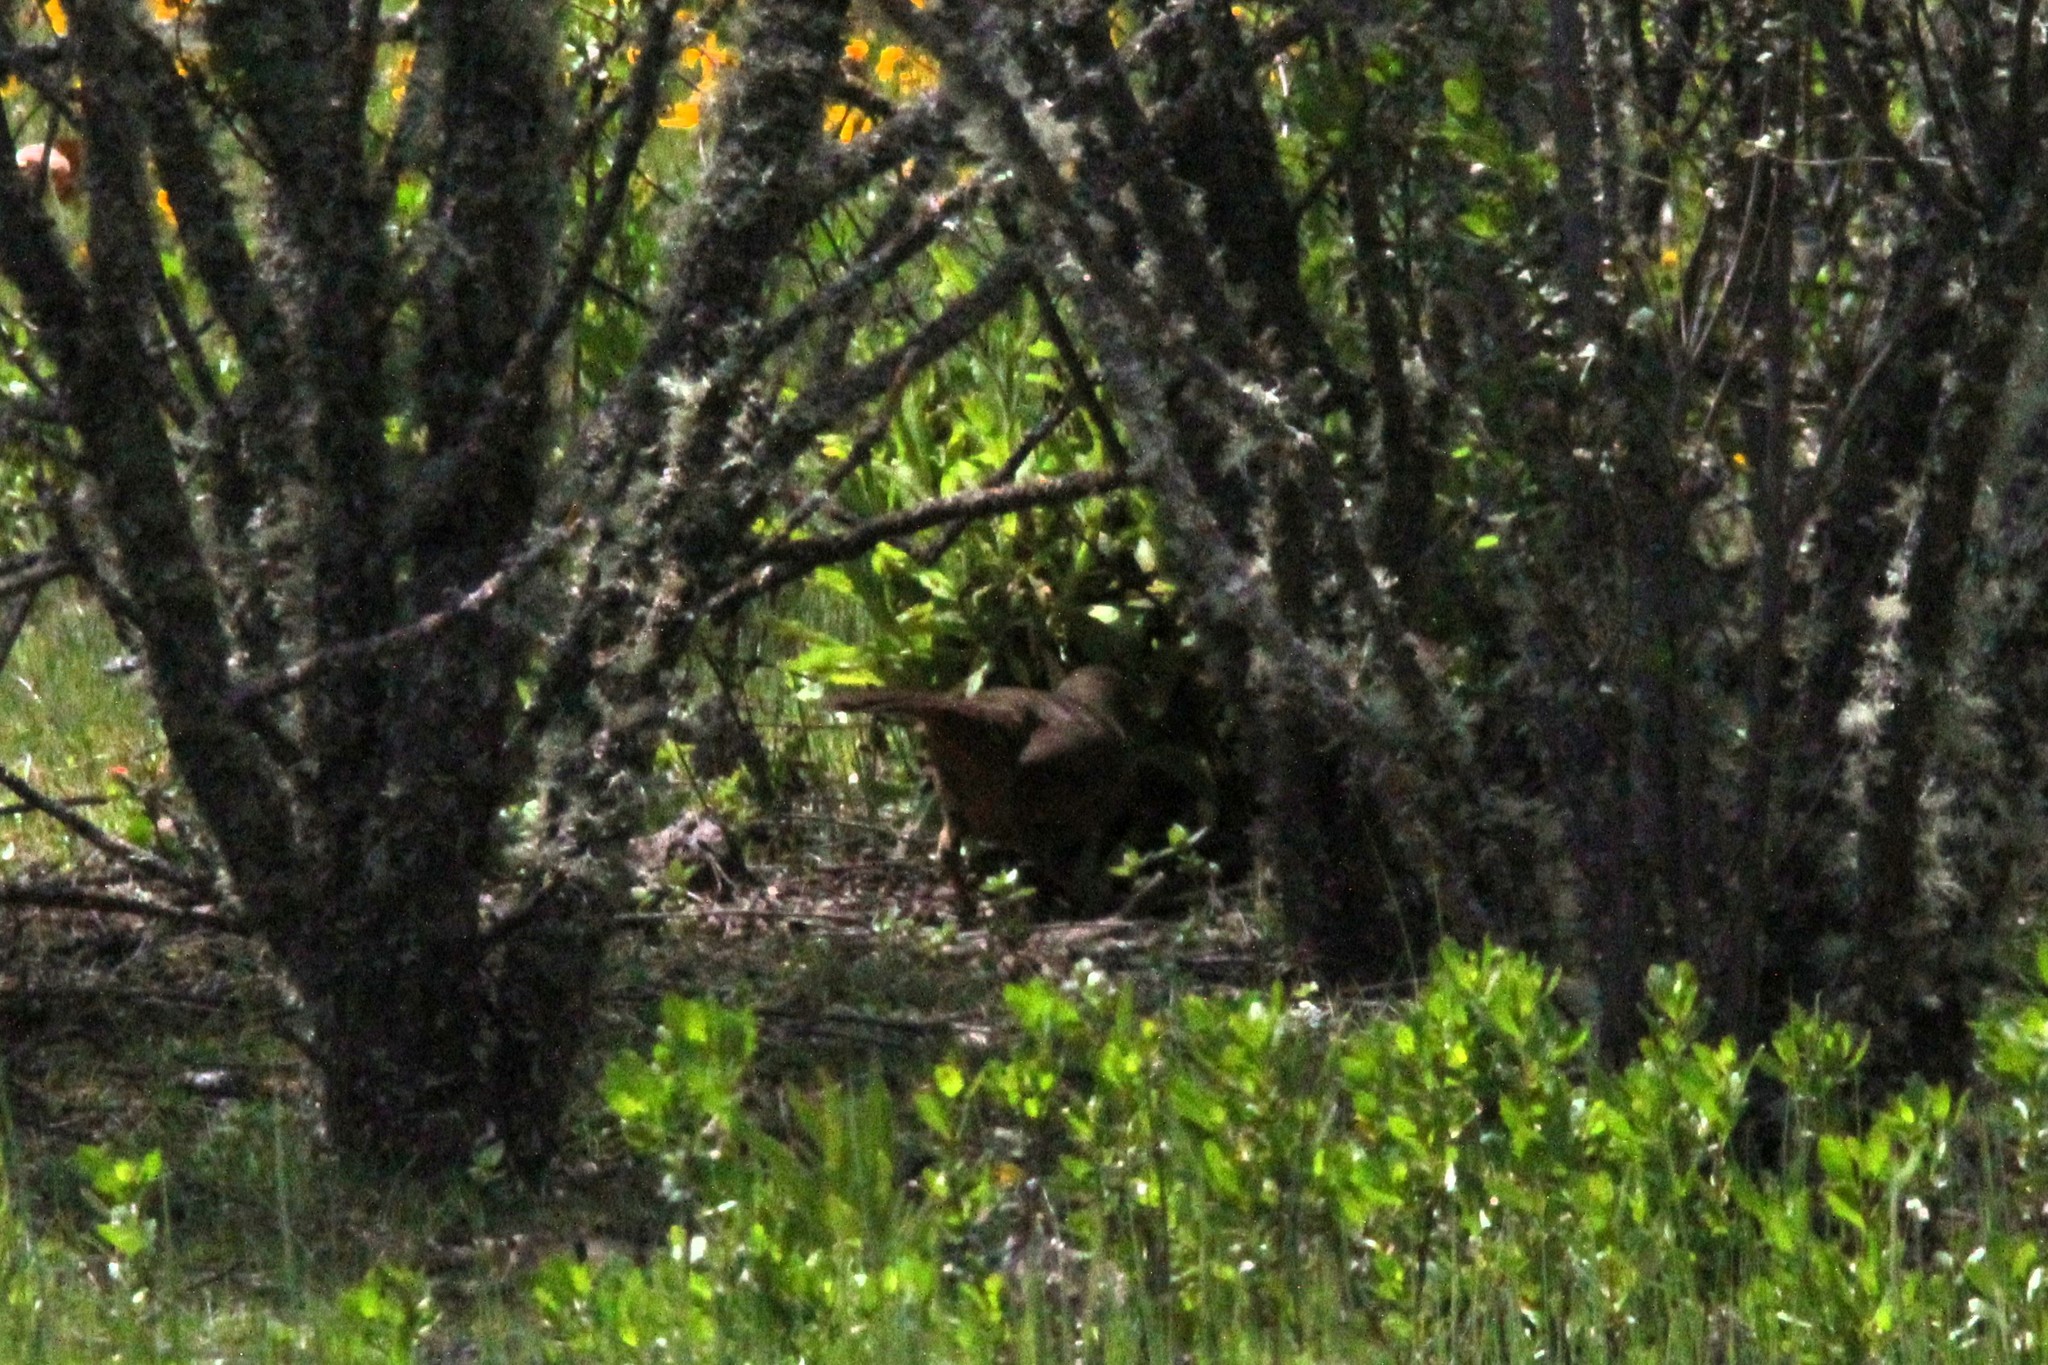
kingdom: Animalia
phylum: Chordata
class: Aves
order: Passeriformes
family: Mimidae
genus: Toxostoma
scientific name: Toxostoma redivivum
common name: California thrasher
